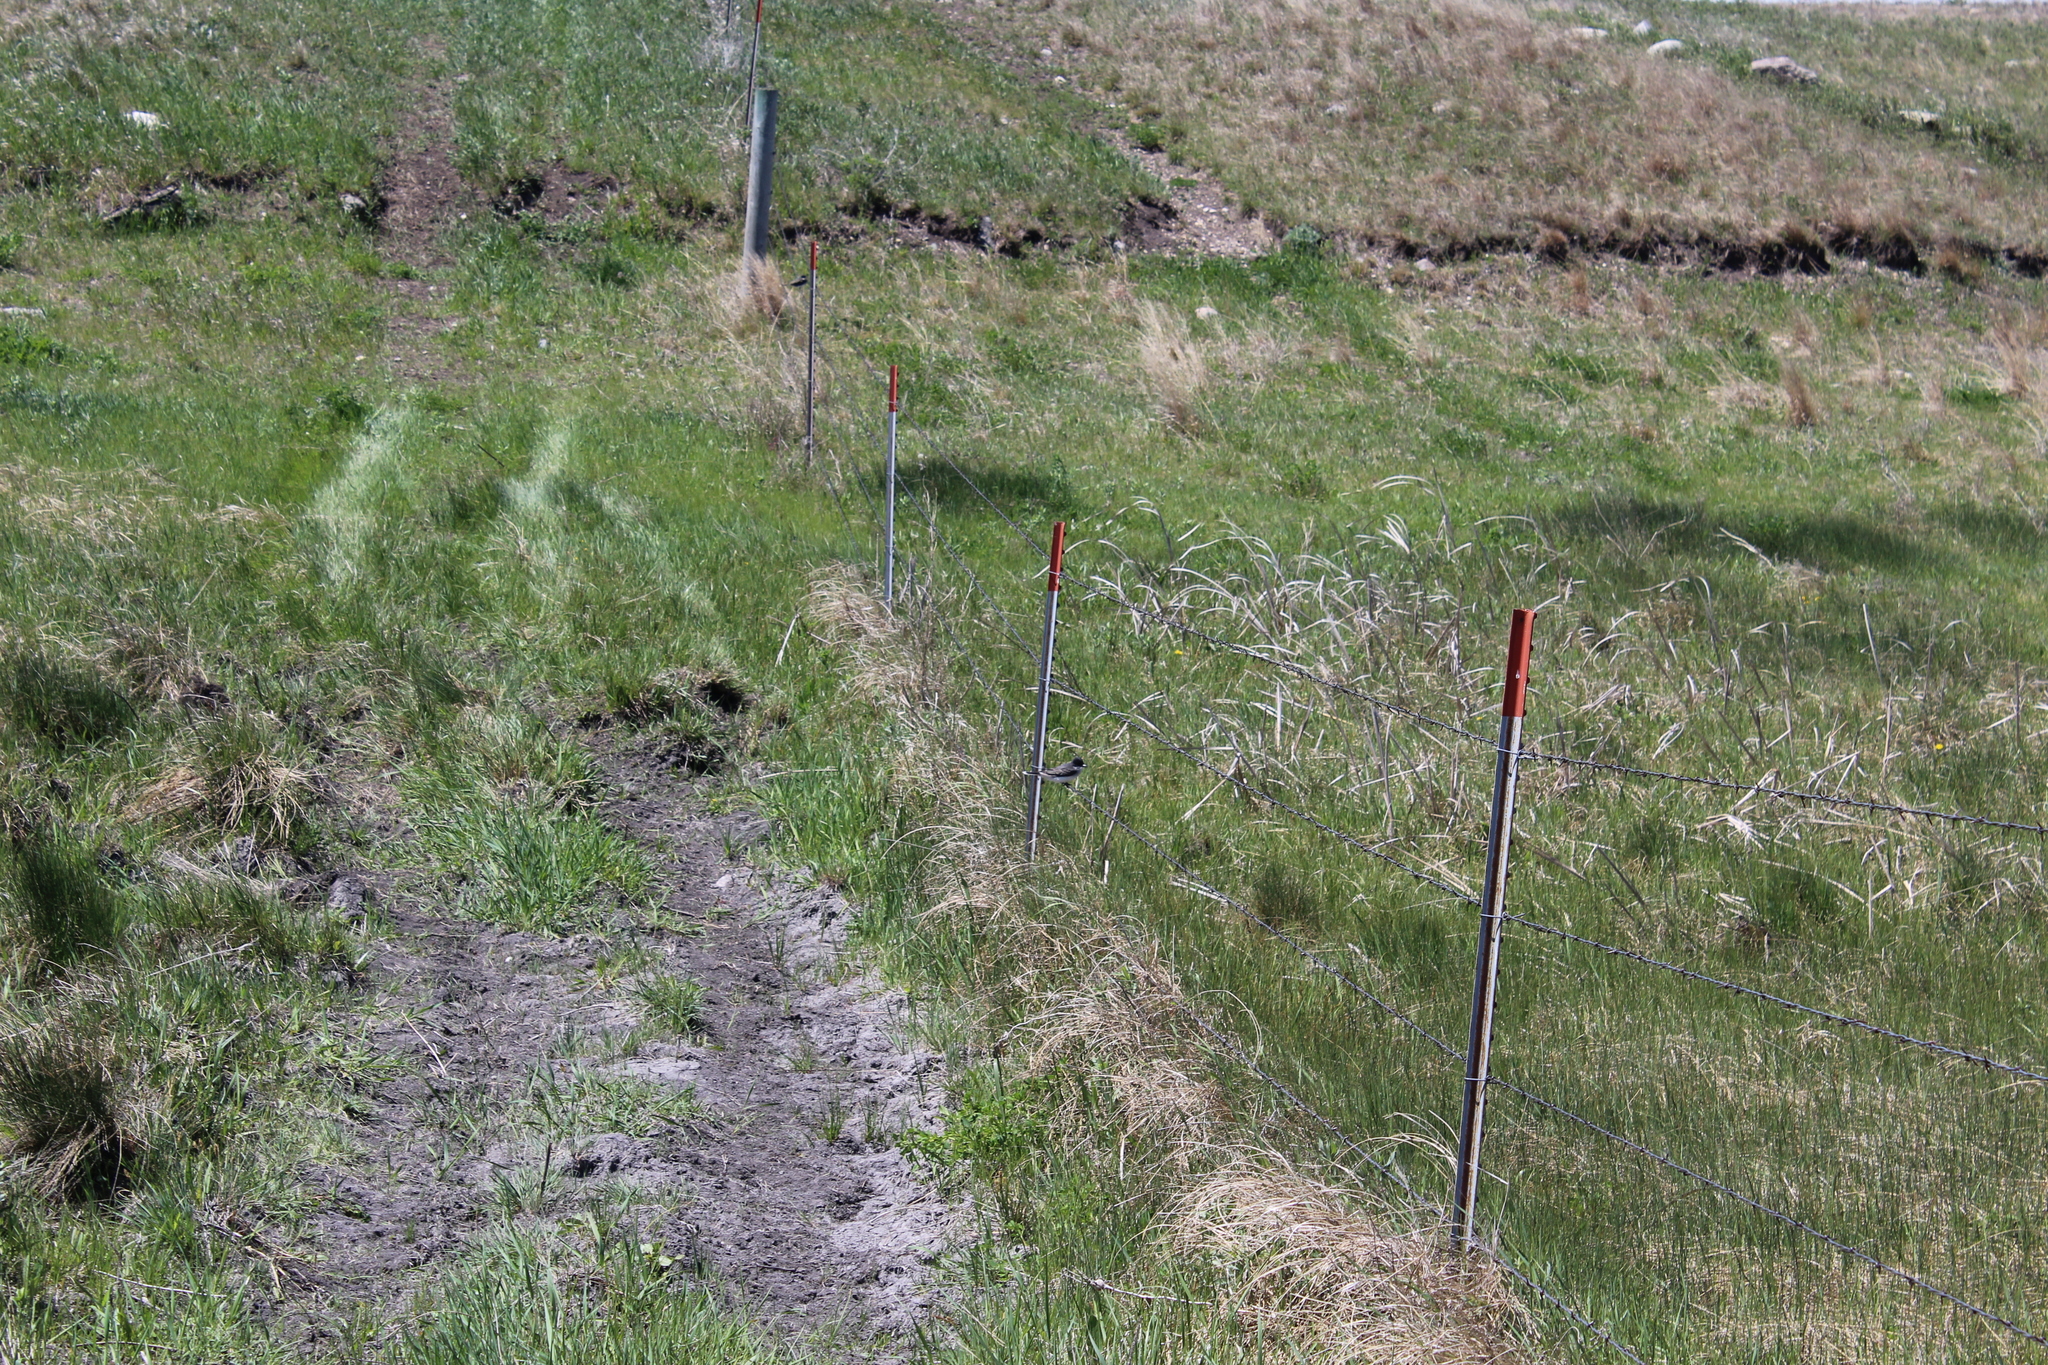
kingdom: Animalia
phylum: Chordata
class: Aves
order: Passeriformes
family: Tyrannidae
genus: Tyrannus
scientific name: Tyrannus tyrannus
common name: Eastern kingbird
